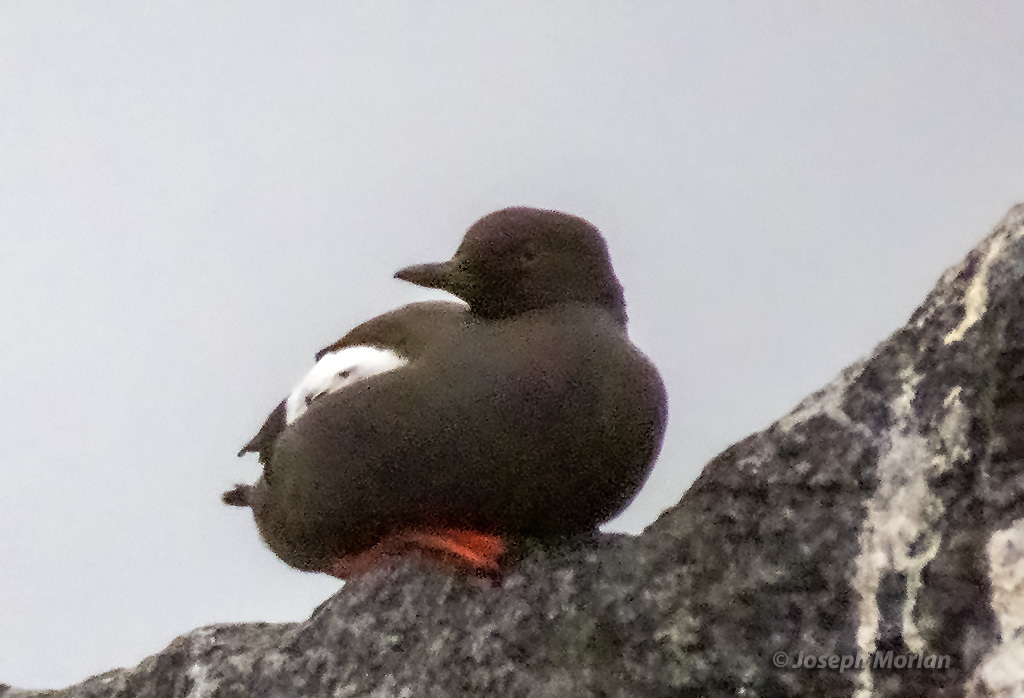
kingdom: Animalia
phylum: Chordata
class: Aves
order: Charadriiformes
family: Alcidae
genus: Cepphus
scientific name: Cepphus columba
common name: Pigeon guillemot
